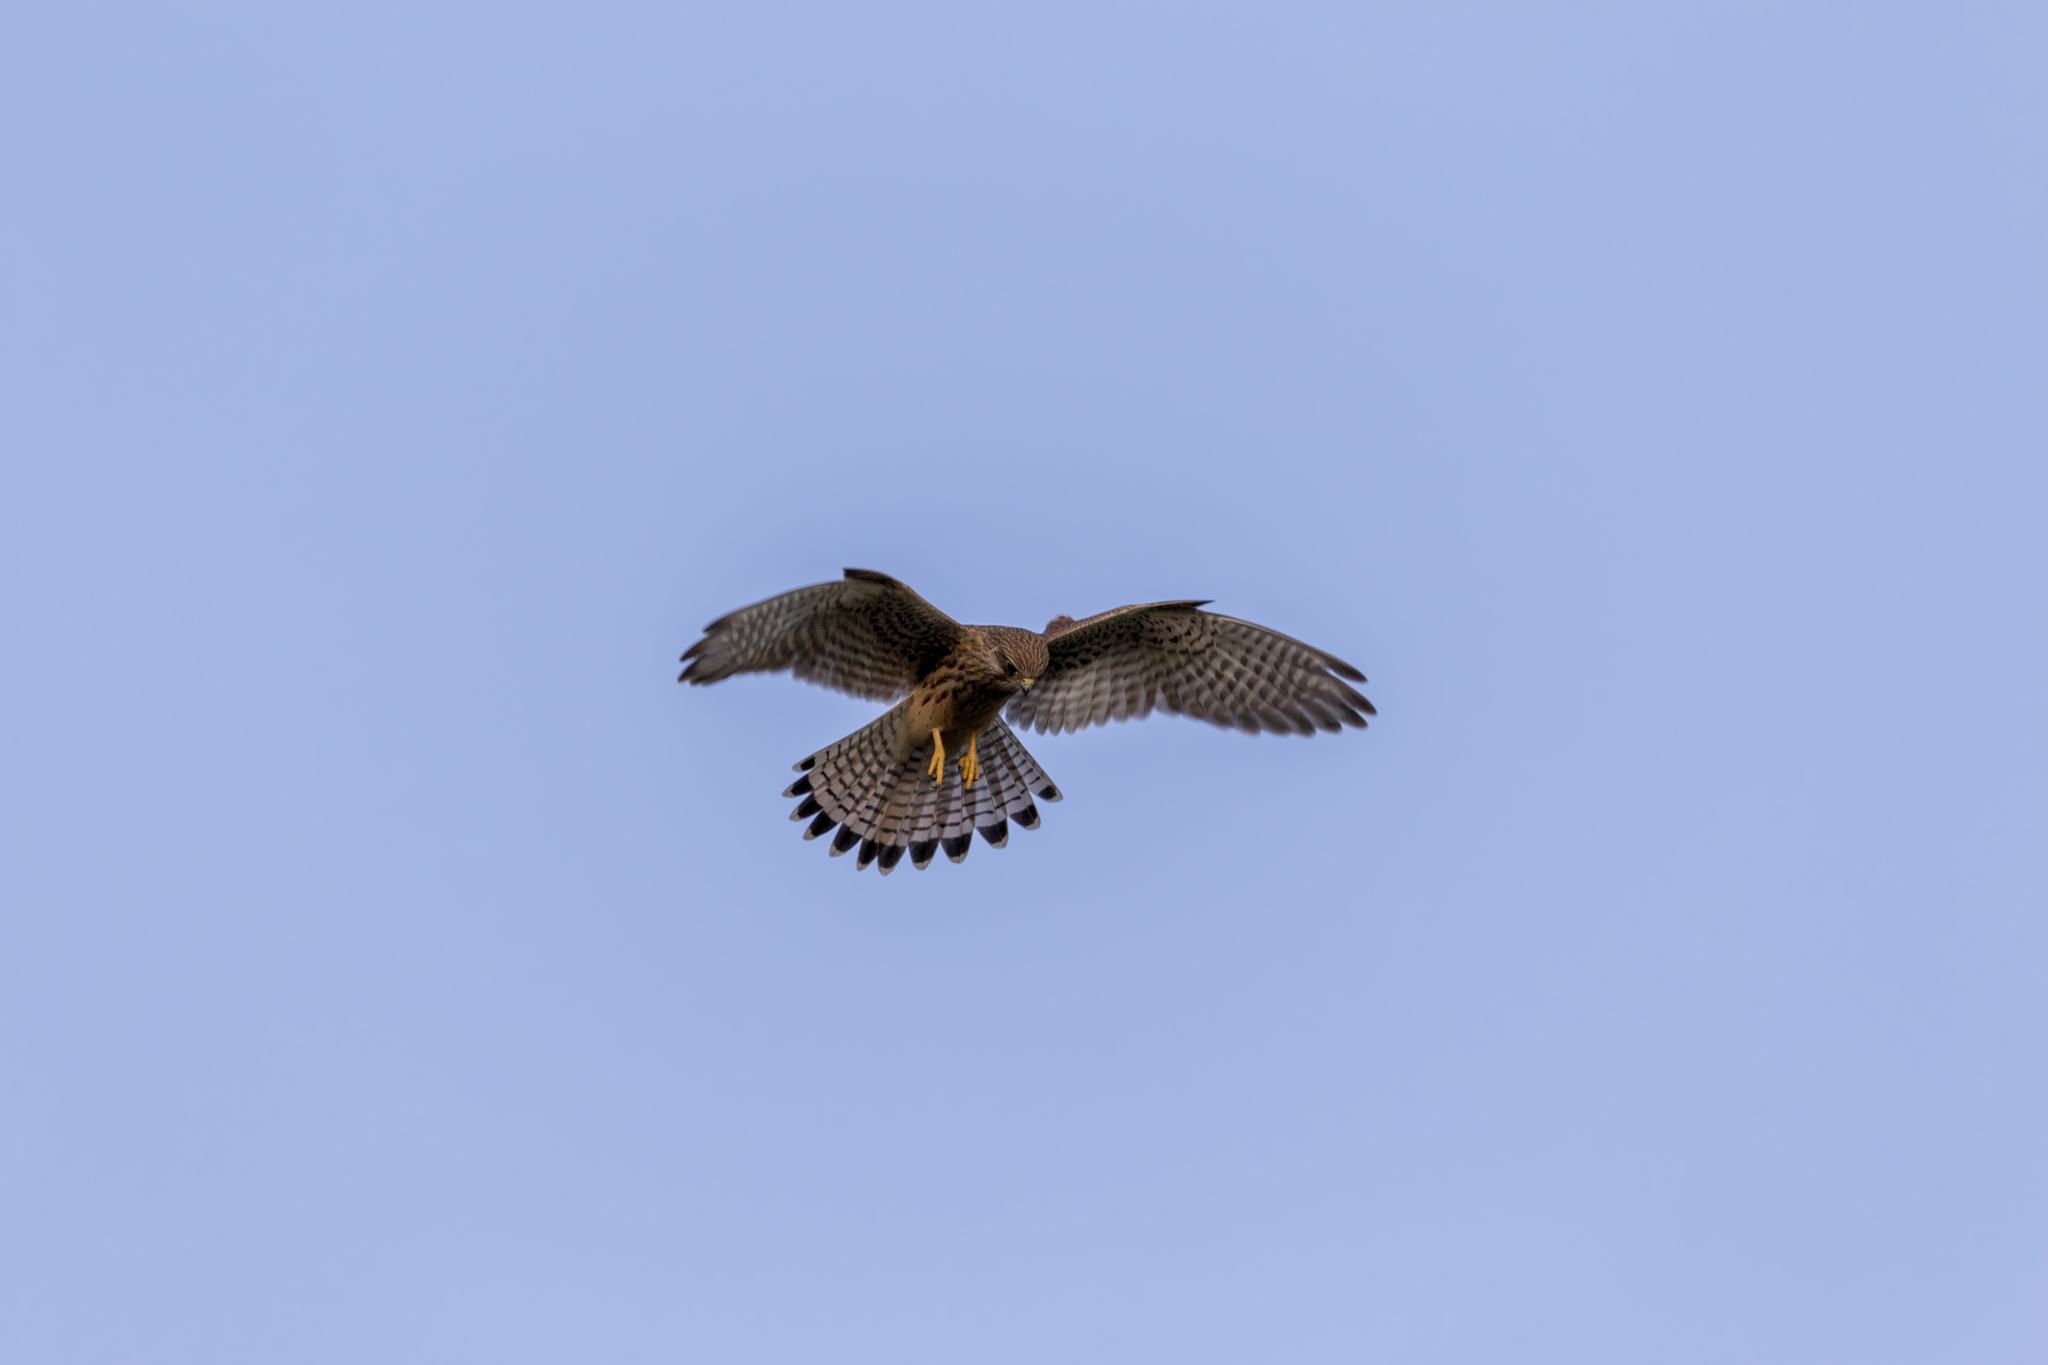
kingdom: Animalia
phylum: Chordata
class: Aves
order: Falconiformes
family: Falconidae
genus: Falco
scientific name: Falco tinnunculus
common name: Common kestrel
